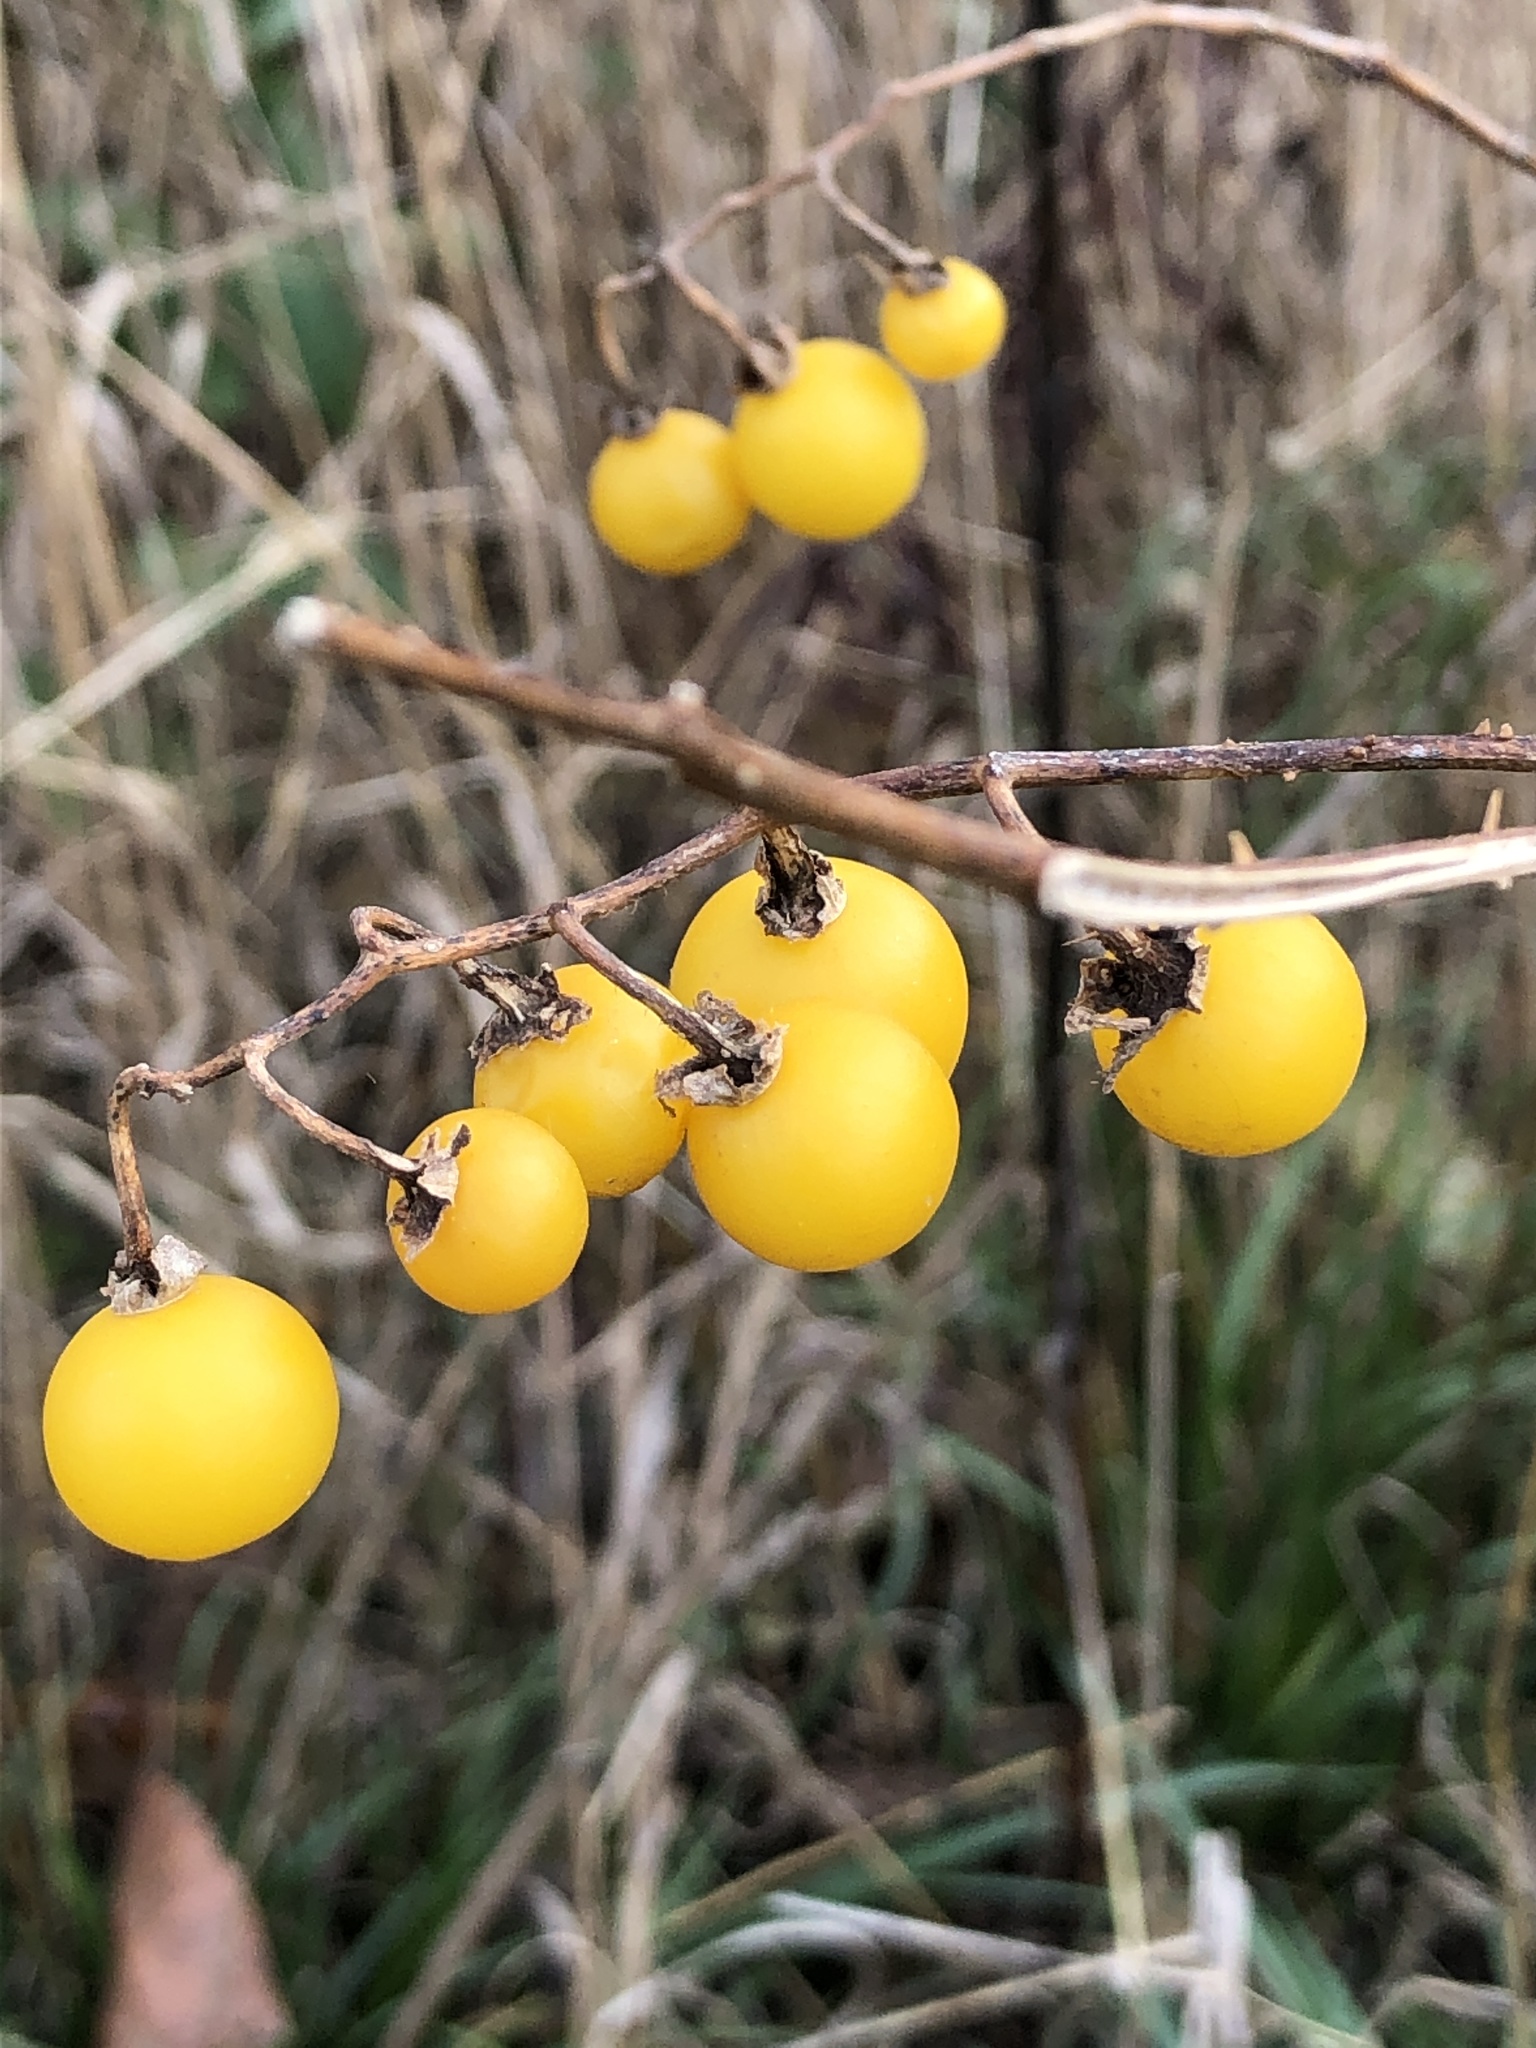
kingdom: Plantae
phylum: Tracheophyta
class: Magnoliopsida
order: Solanales
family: Solanaceae
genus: Solanum
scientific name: Solanum carolinense
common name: Horse-nettle
